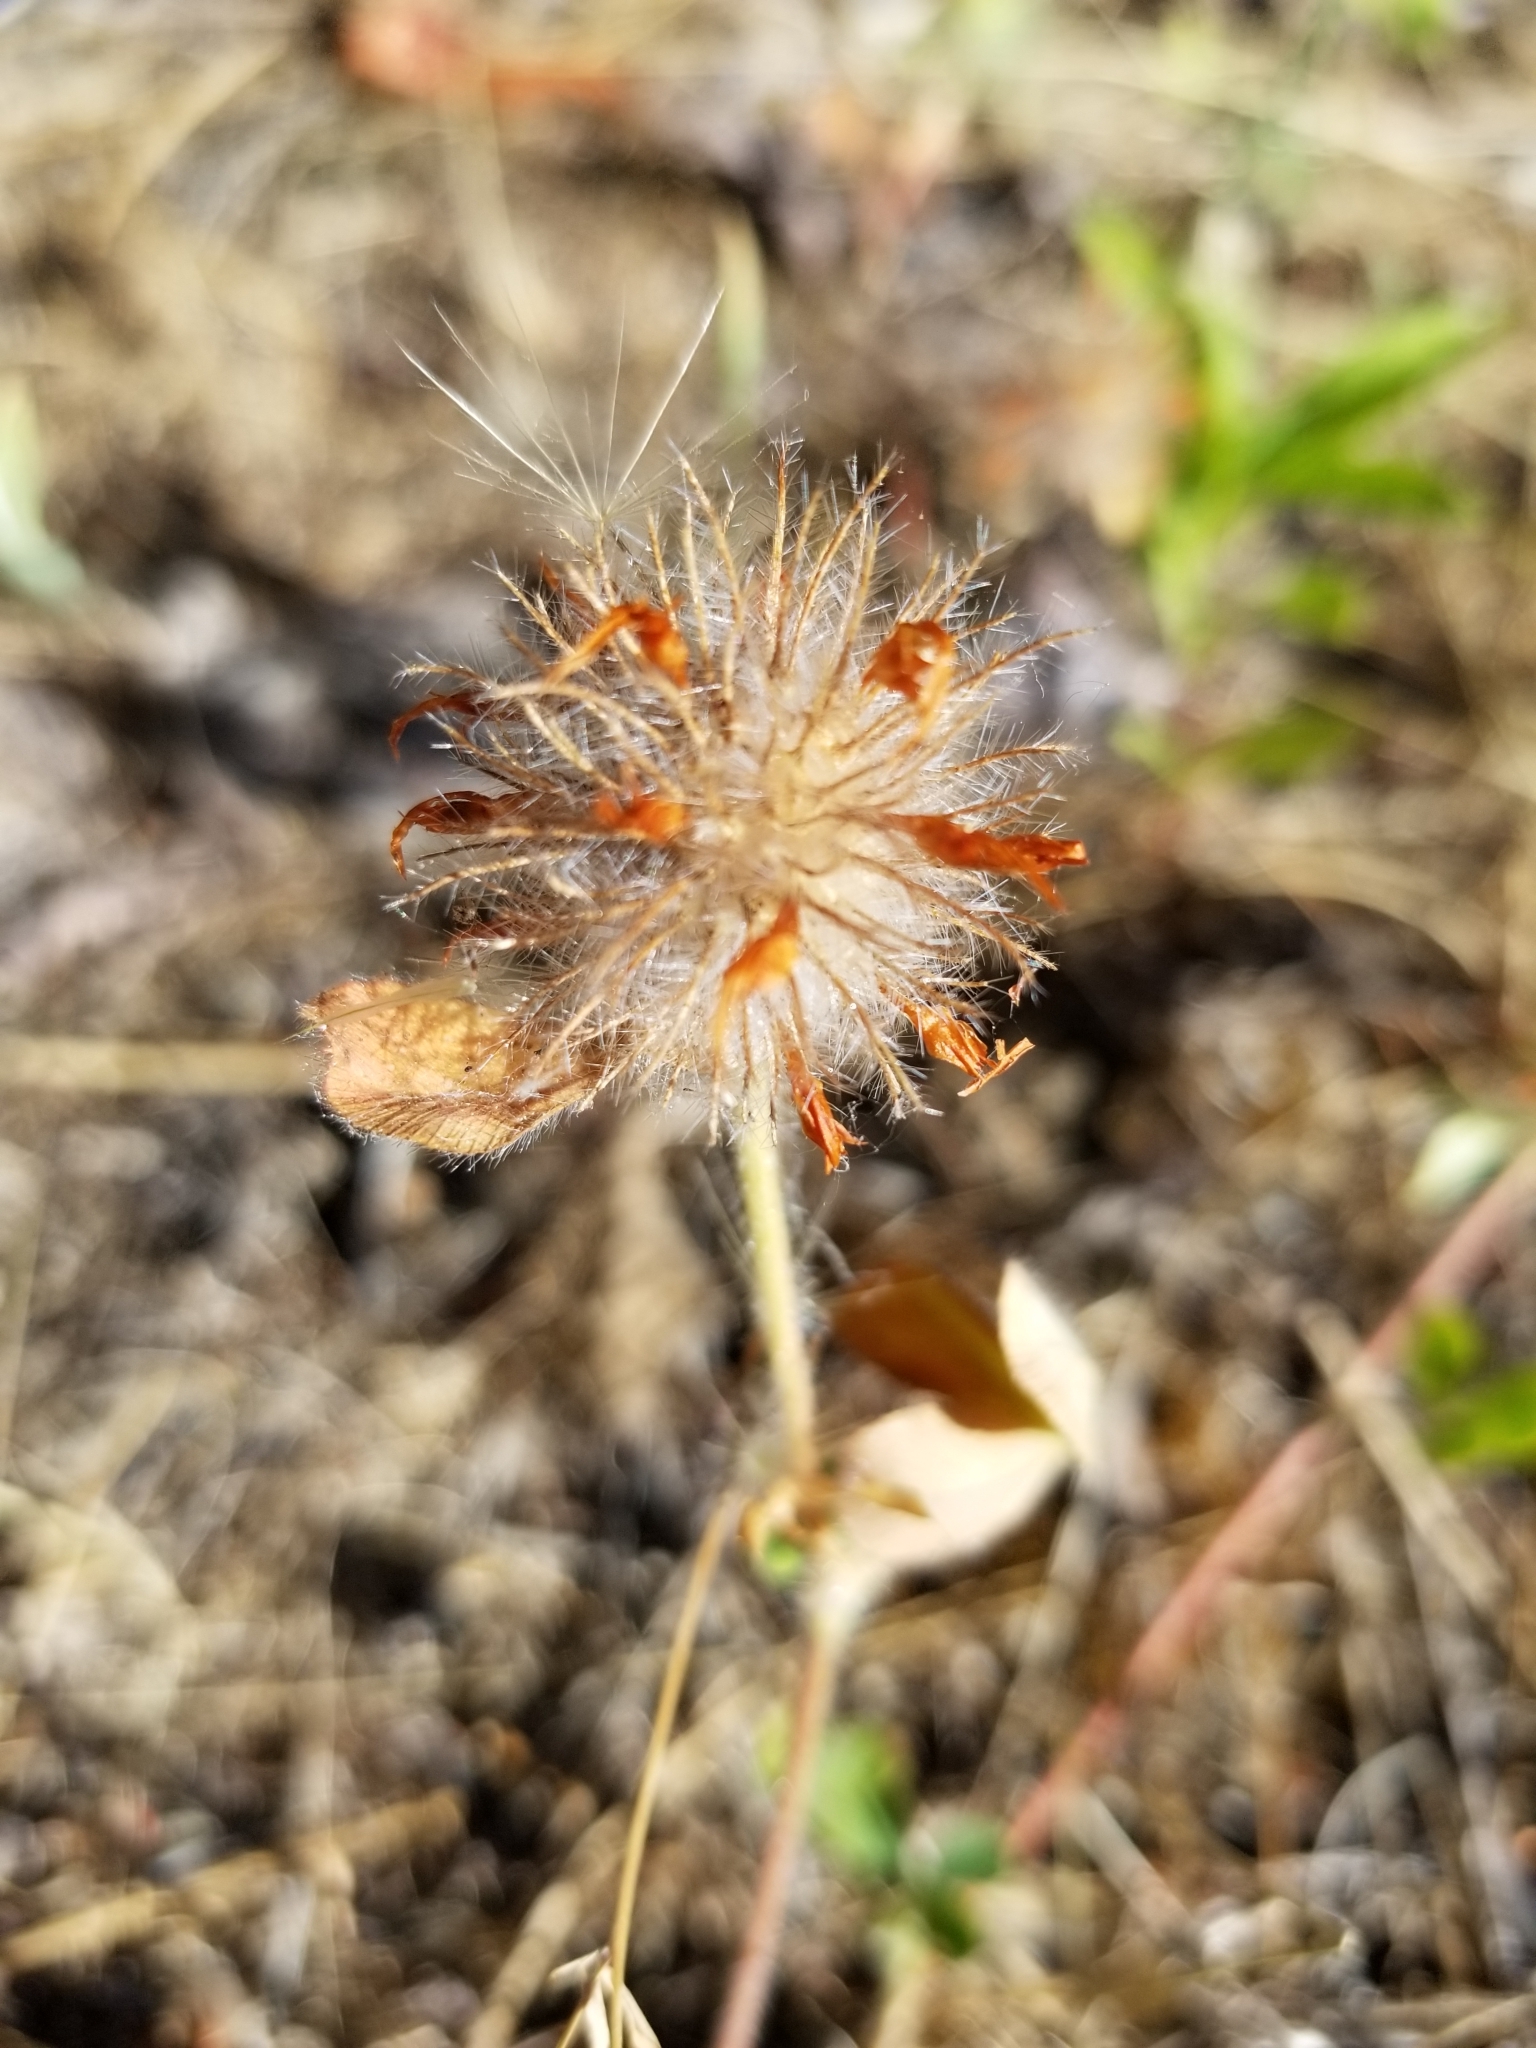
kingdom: Plantae
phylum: Tracheophyta
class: Magnoliopsida
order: Fabales
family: Fabaceae
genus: Trifolium
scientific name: Trifolium hirtum
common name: Rose clover
